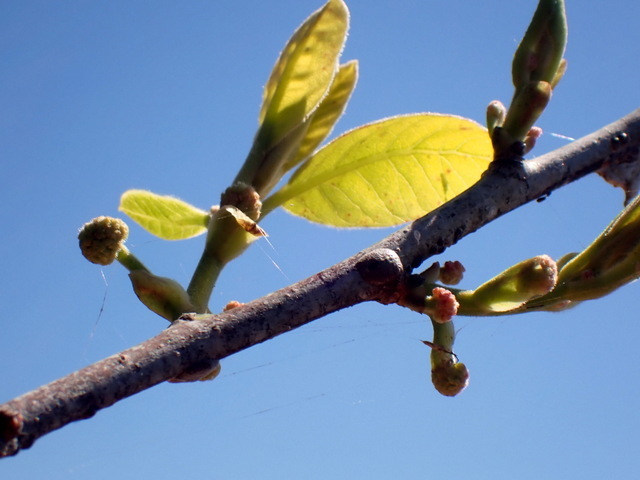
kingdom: Plantae
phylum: Tracheophyta
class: Magnoliopsida
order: Cornales
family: Nyssaceae
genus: Nyssa
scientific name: Nyssa ogeche
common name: Ogeechee tupelo
